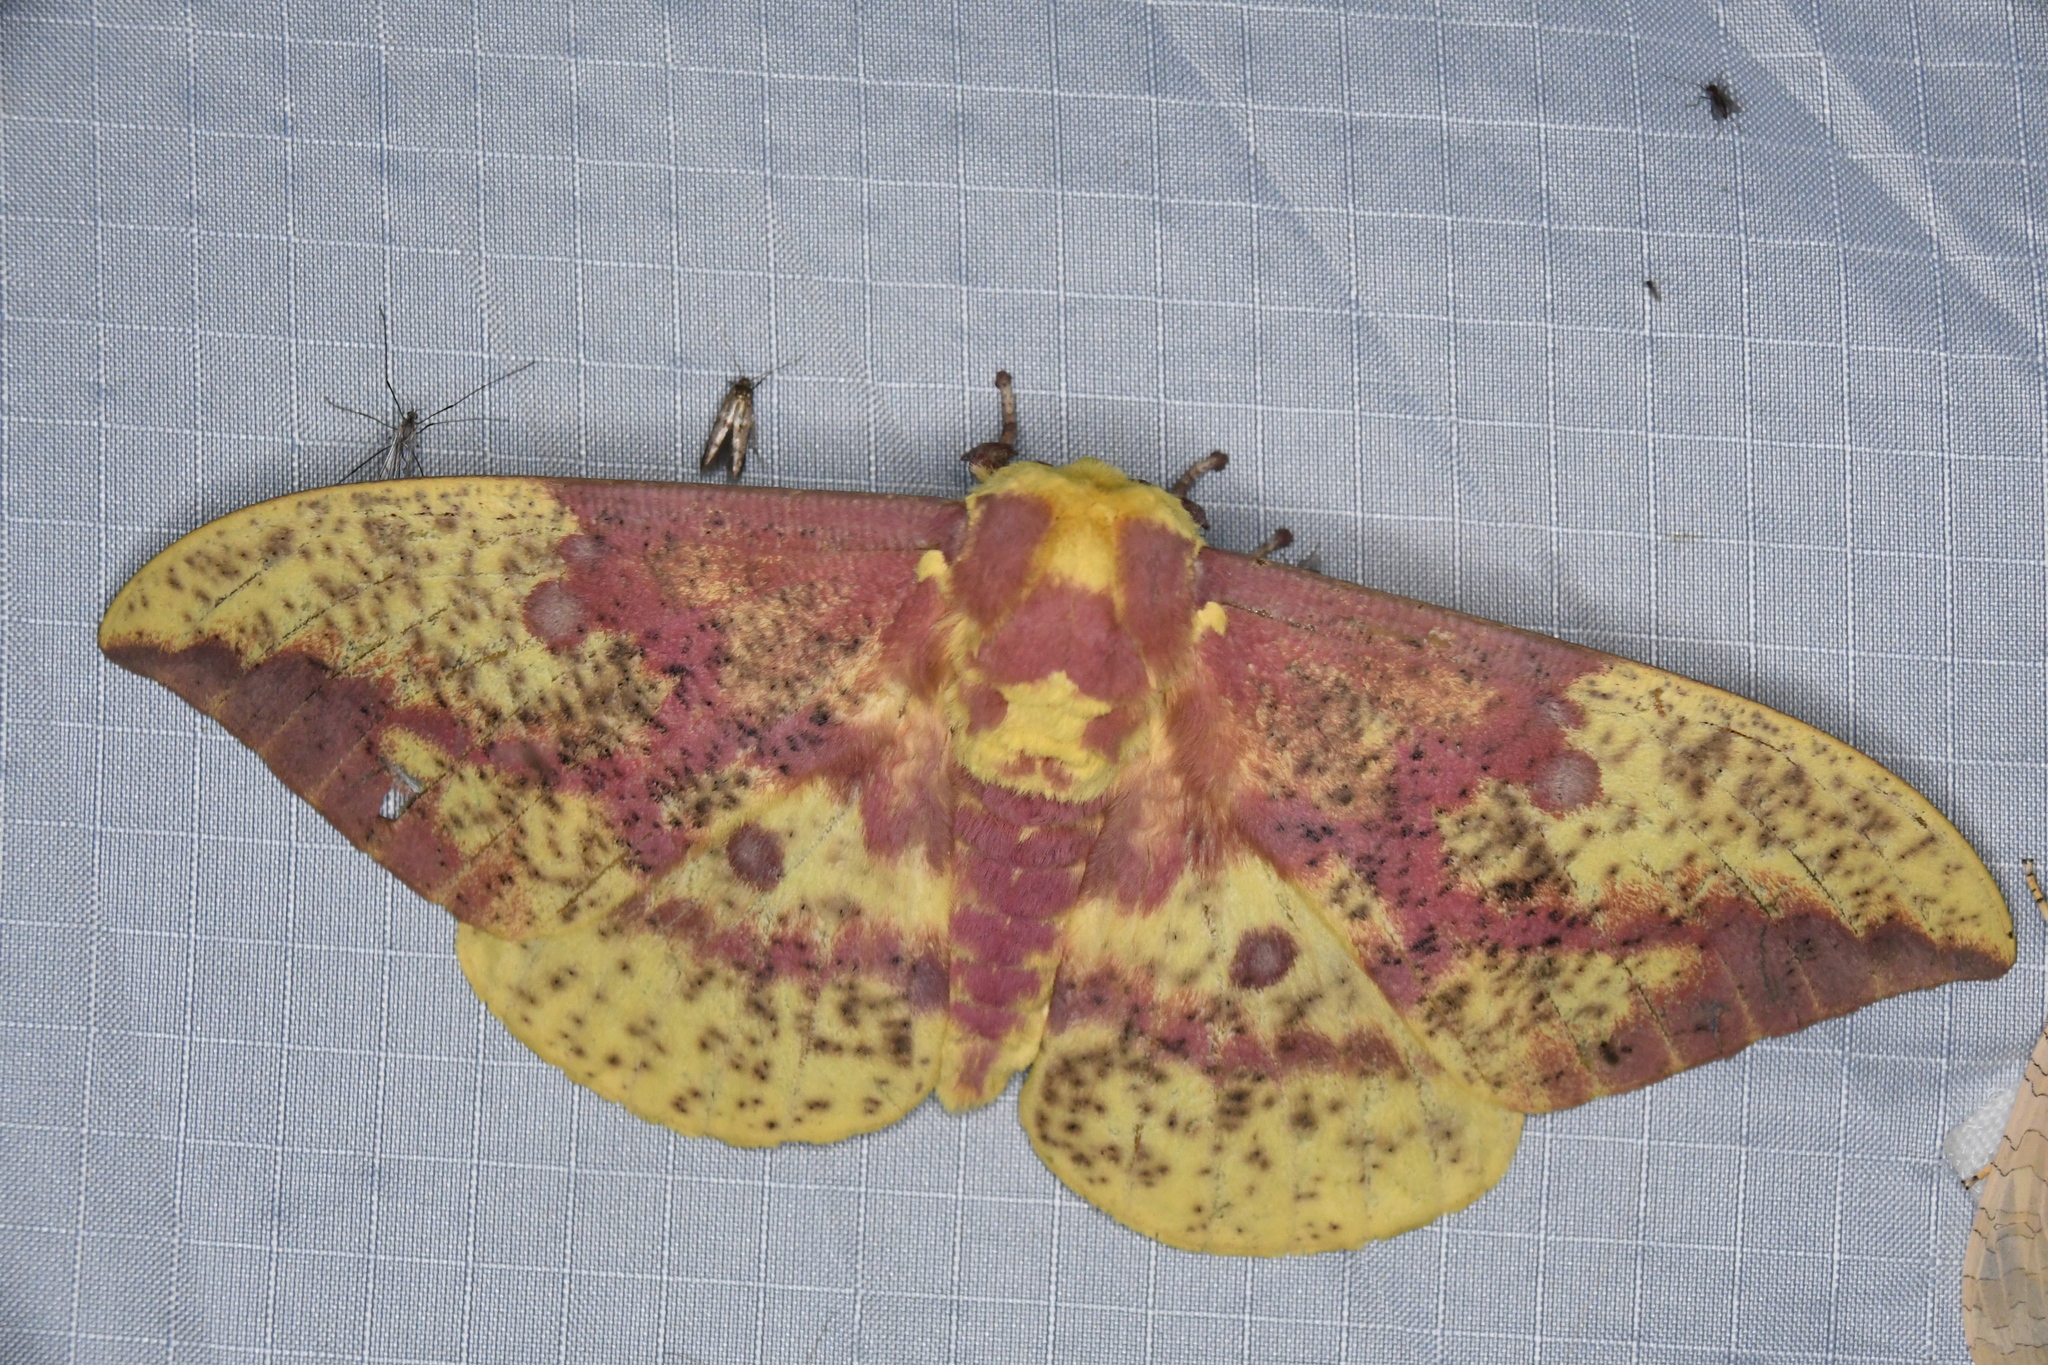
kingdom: Animalia
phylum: Arthropoda
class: Insecta
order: Lepidoptera
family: Saturniidae
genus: Eacles
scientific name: Eacles
